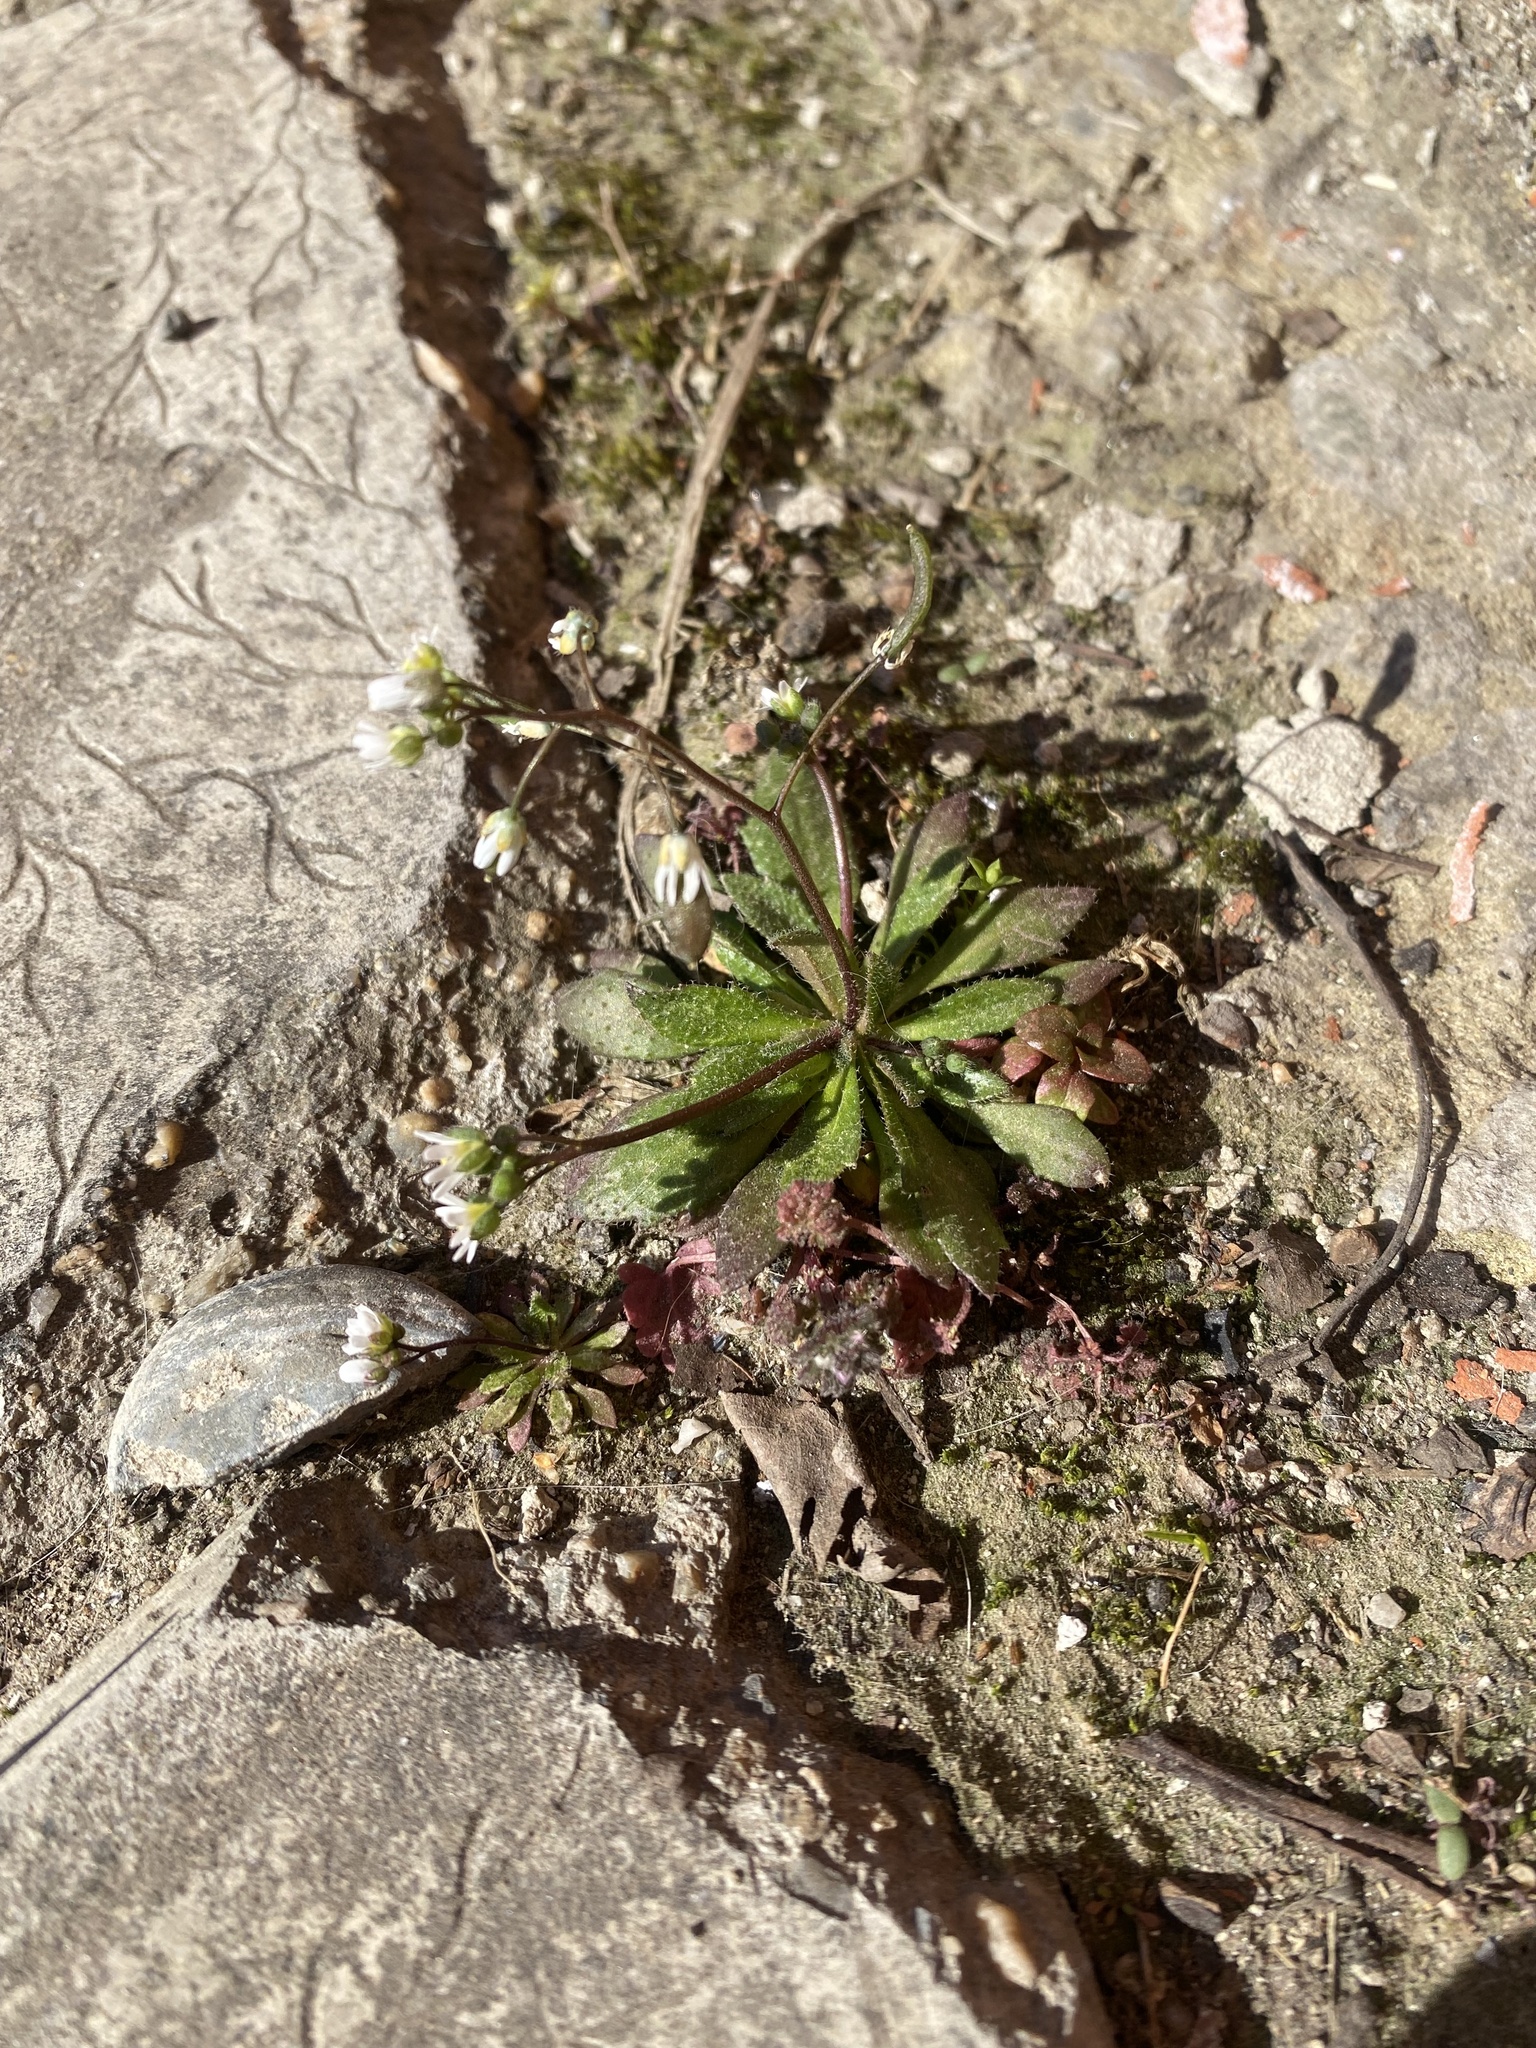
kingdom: Plantae
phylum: Tracheophyta
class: Magnoliopsida
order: Brassicales
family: Brassicaceae
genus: Draba
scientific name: Draba verna
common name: Spring draba
